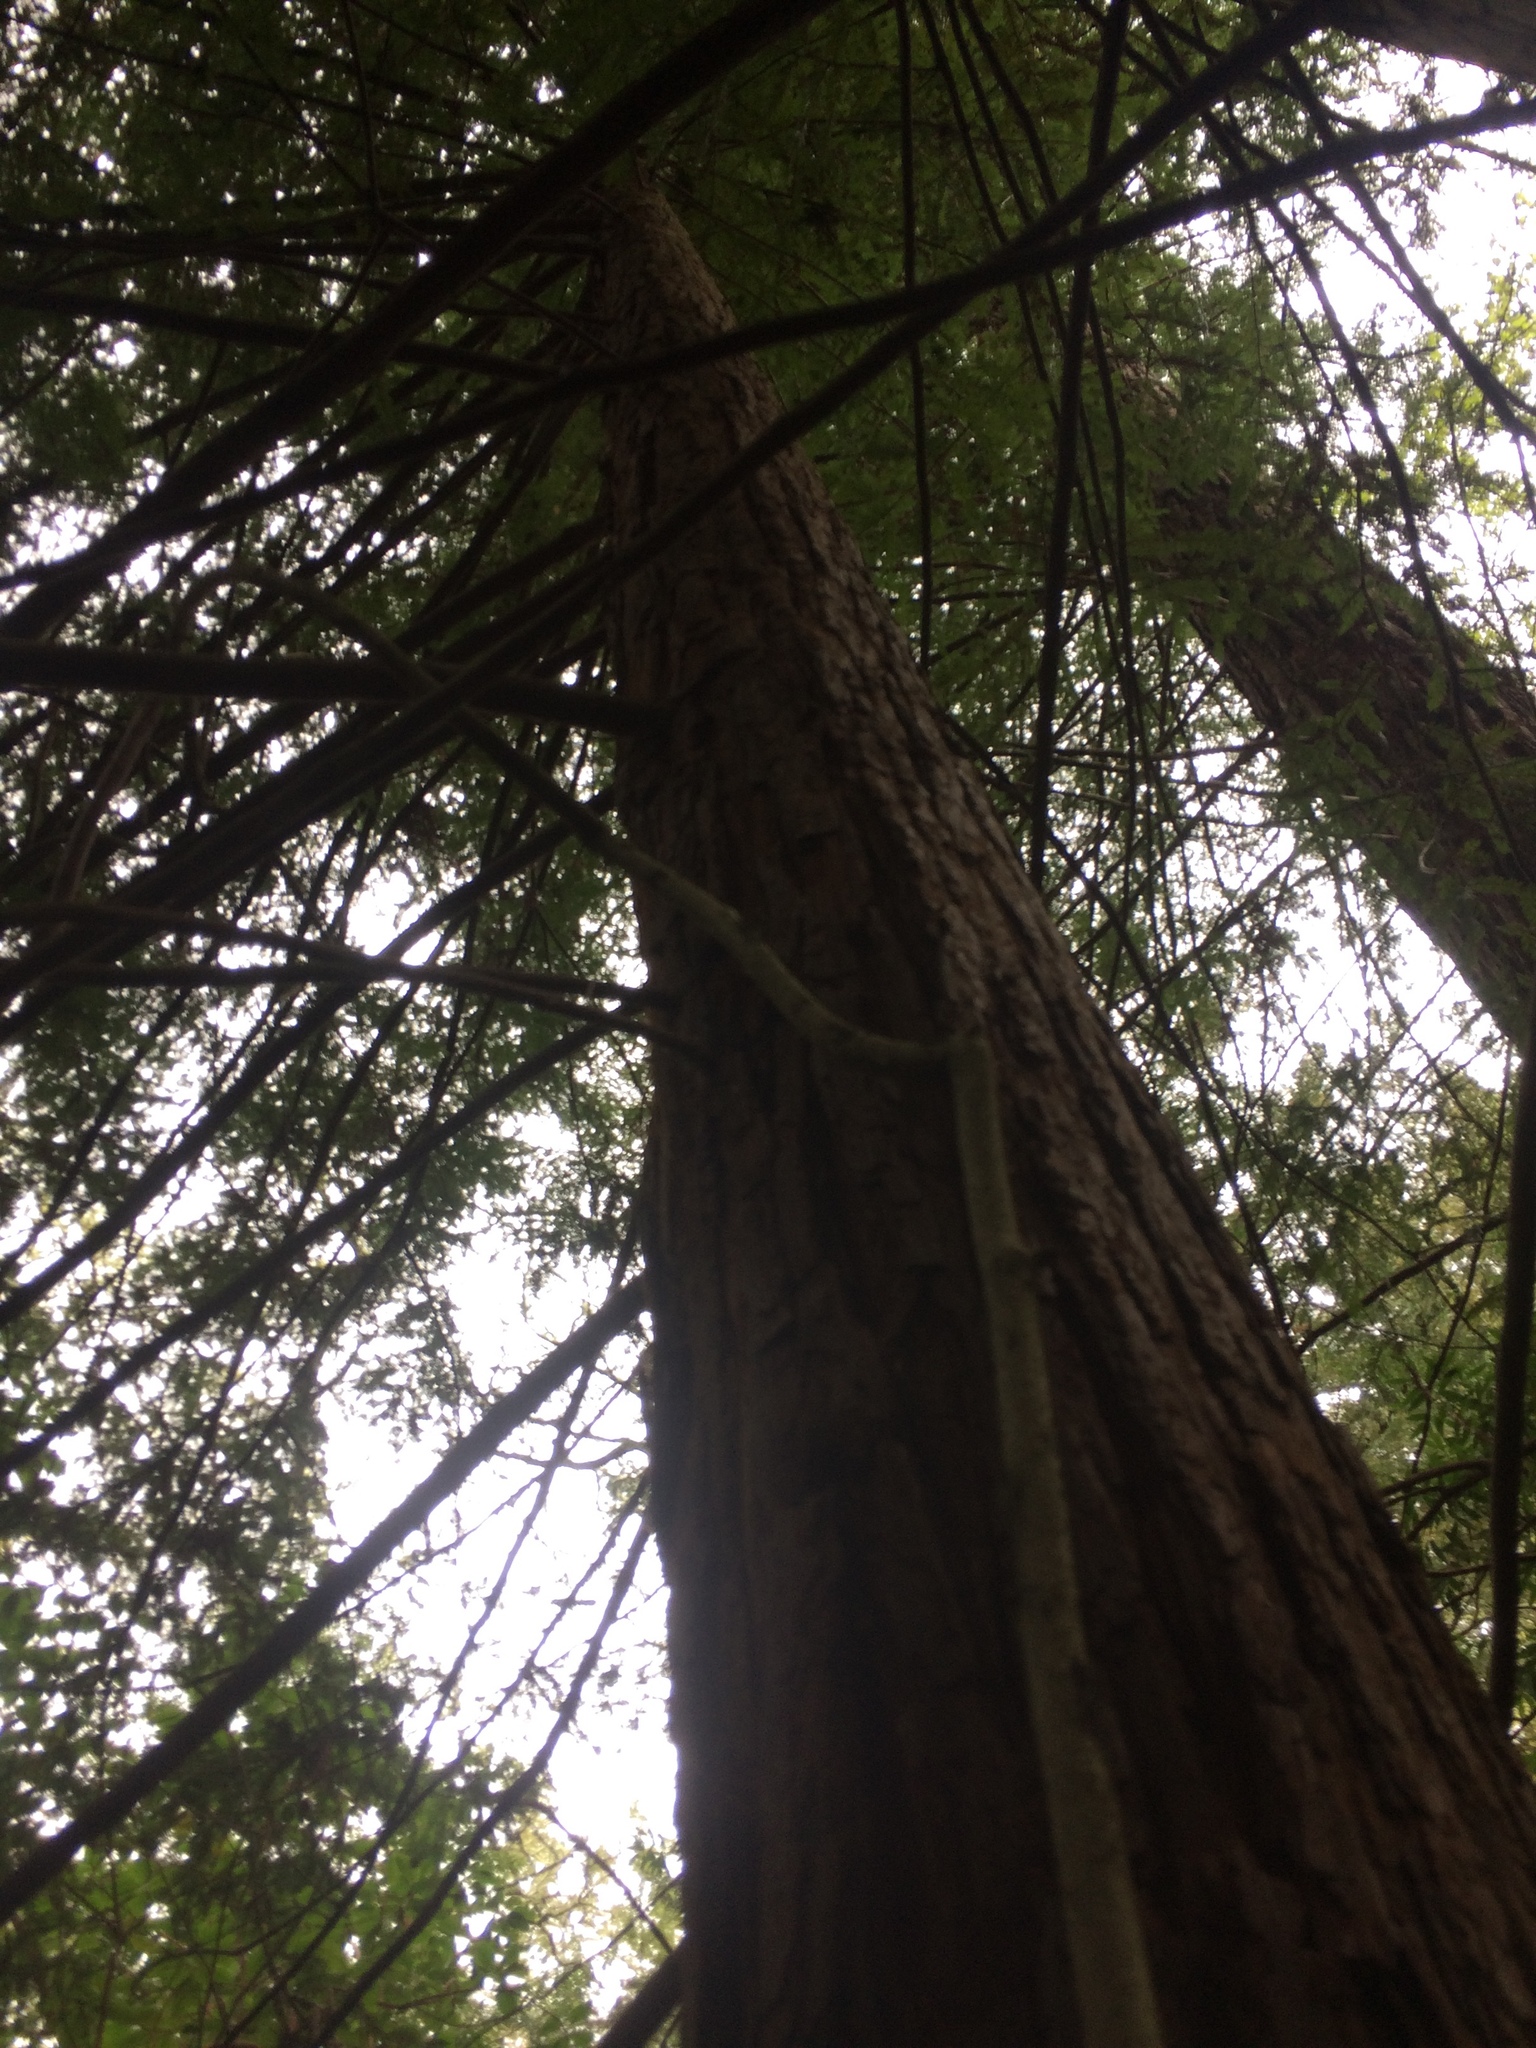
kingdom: Plantae
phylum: Tracheophyta
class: Pinopsida
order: Pinales
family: Cupressaceae
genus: Sequoia
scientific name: Sequoia sempervirens
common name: Coast redwood
